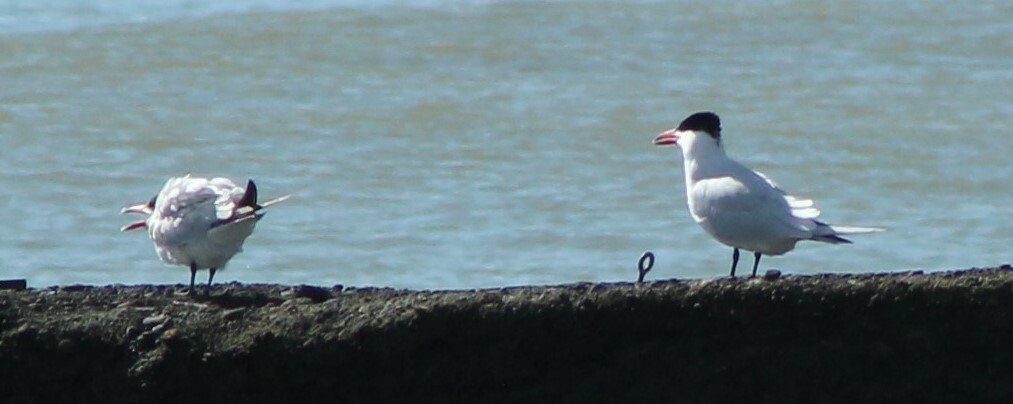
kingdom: Animalia
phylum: Chordata
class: Aves
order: Charadriiformes
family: Laridae
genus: Hydroprogne
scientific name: Hydroprogne caspia
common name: Caspian tern
